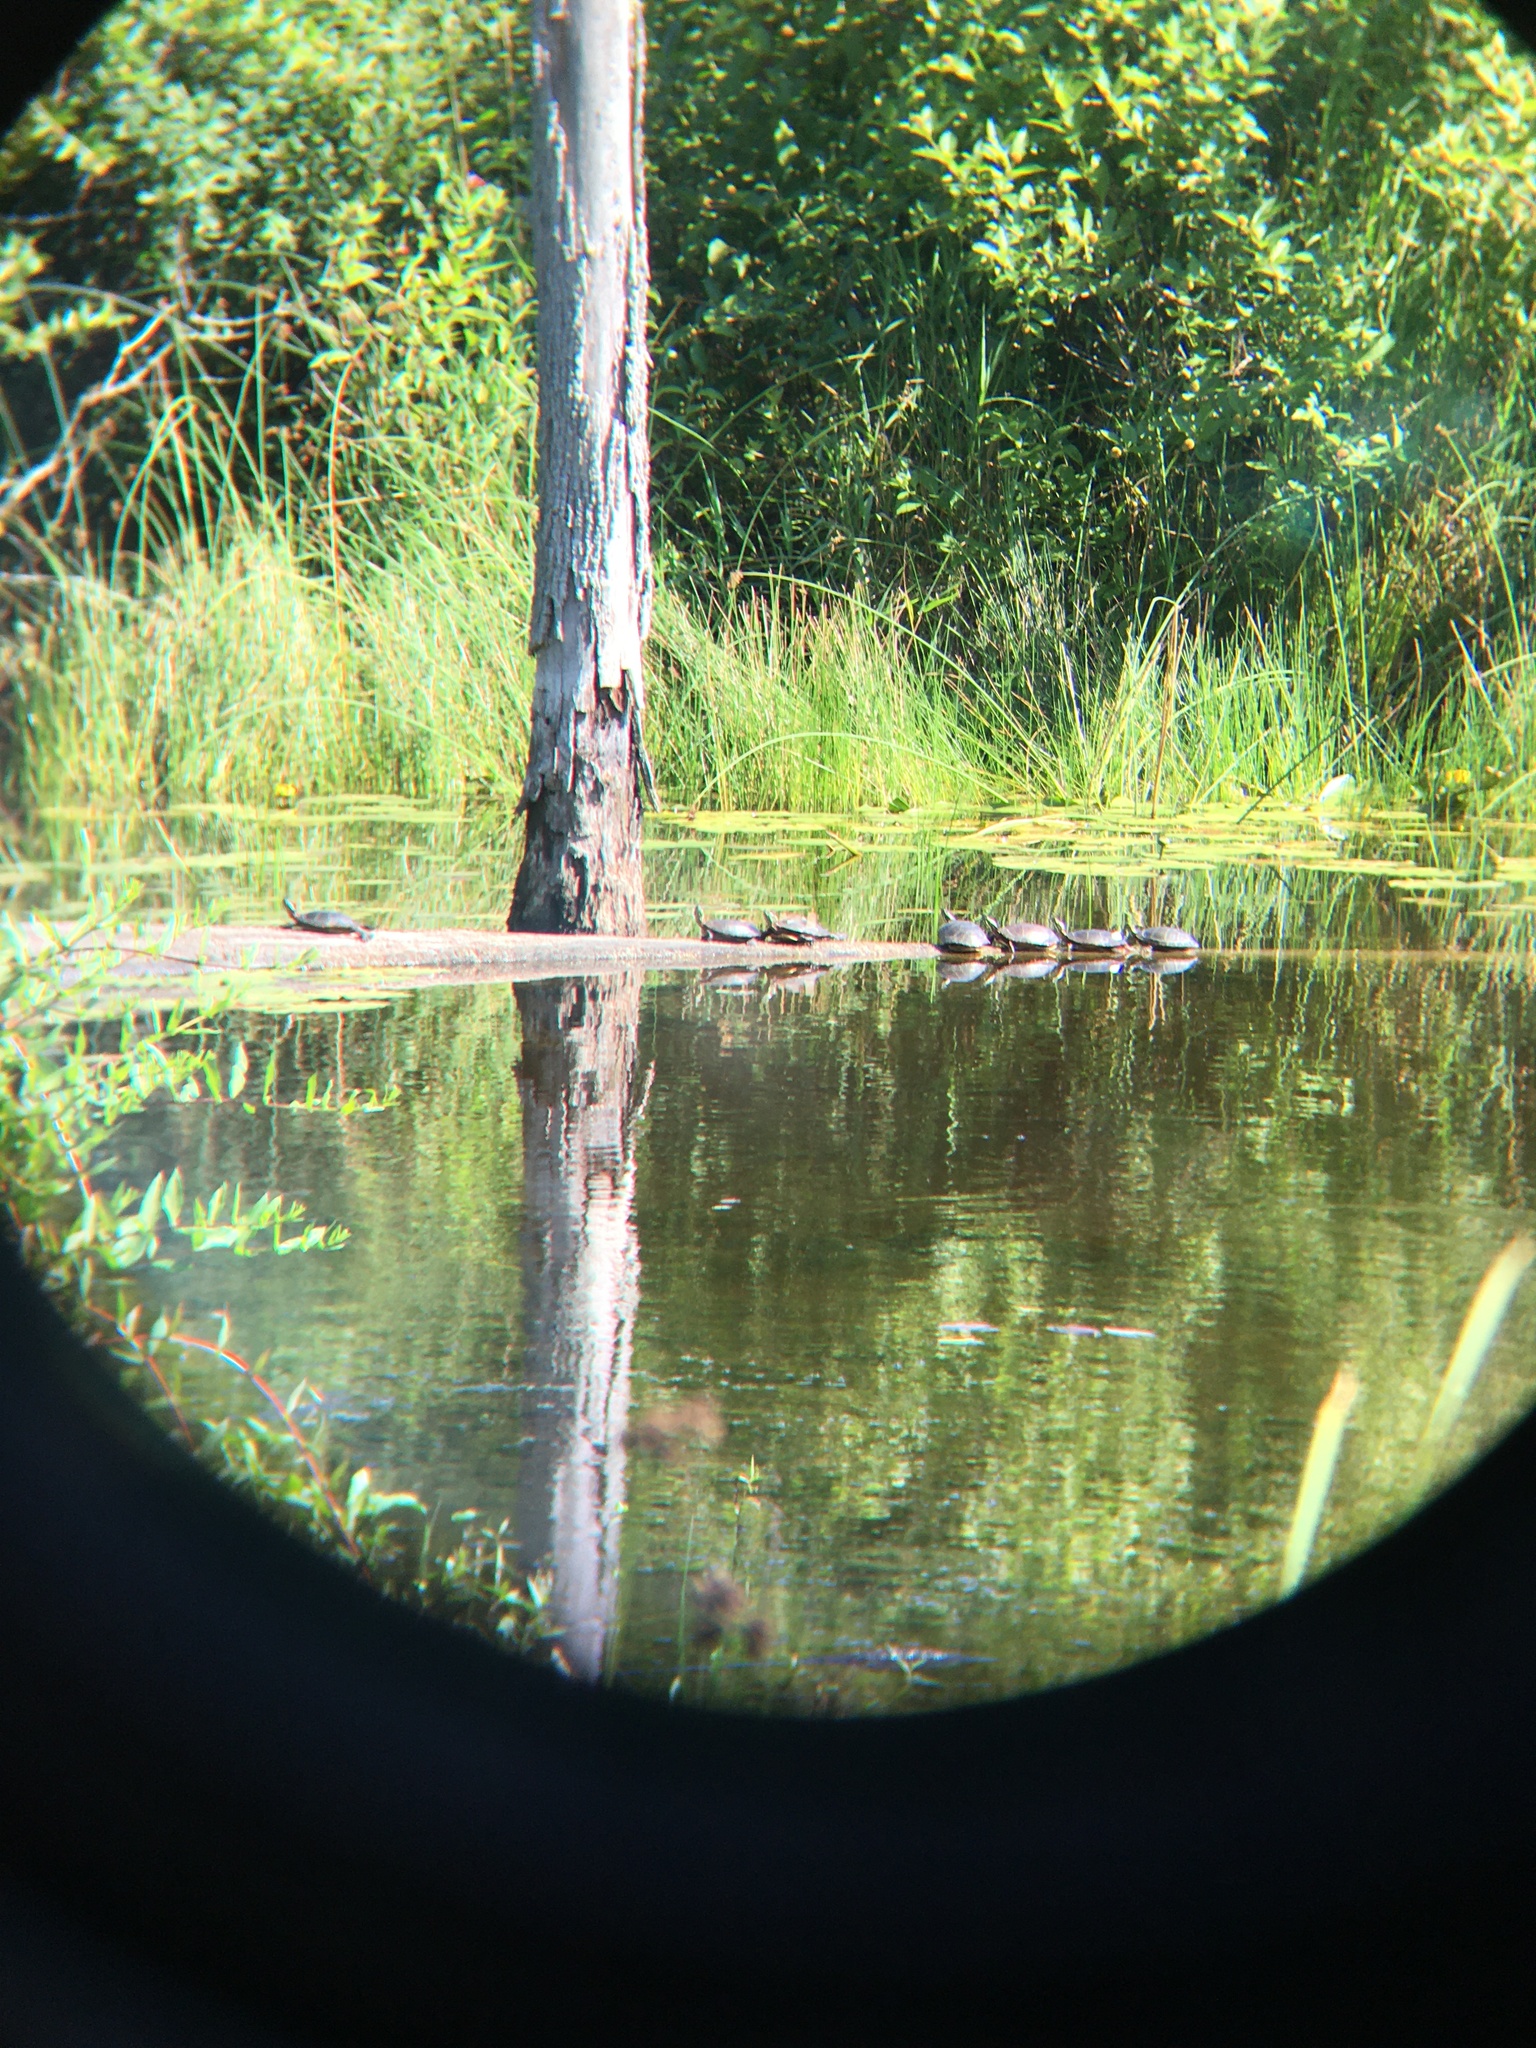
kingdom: Animalia
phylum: Chordata
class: Testudines
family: Emydidae
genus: Chrysemys
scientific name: Chrysemys picta
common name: Painted turtle
